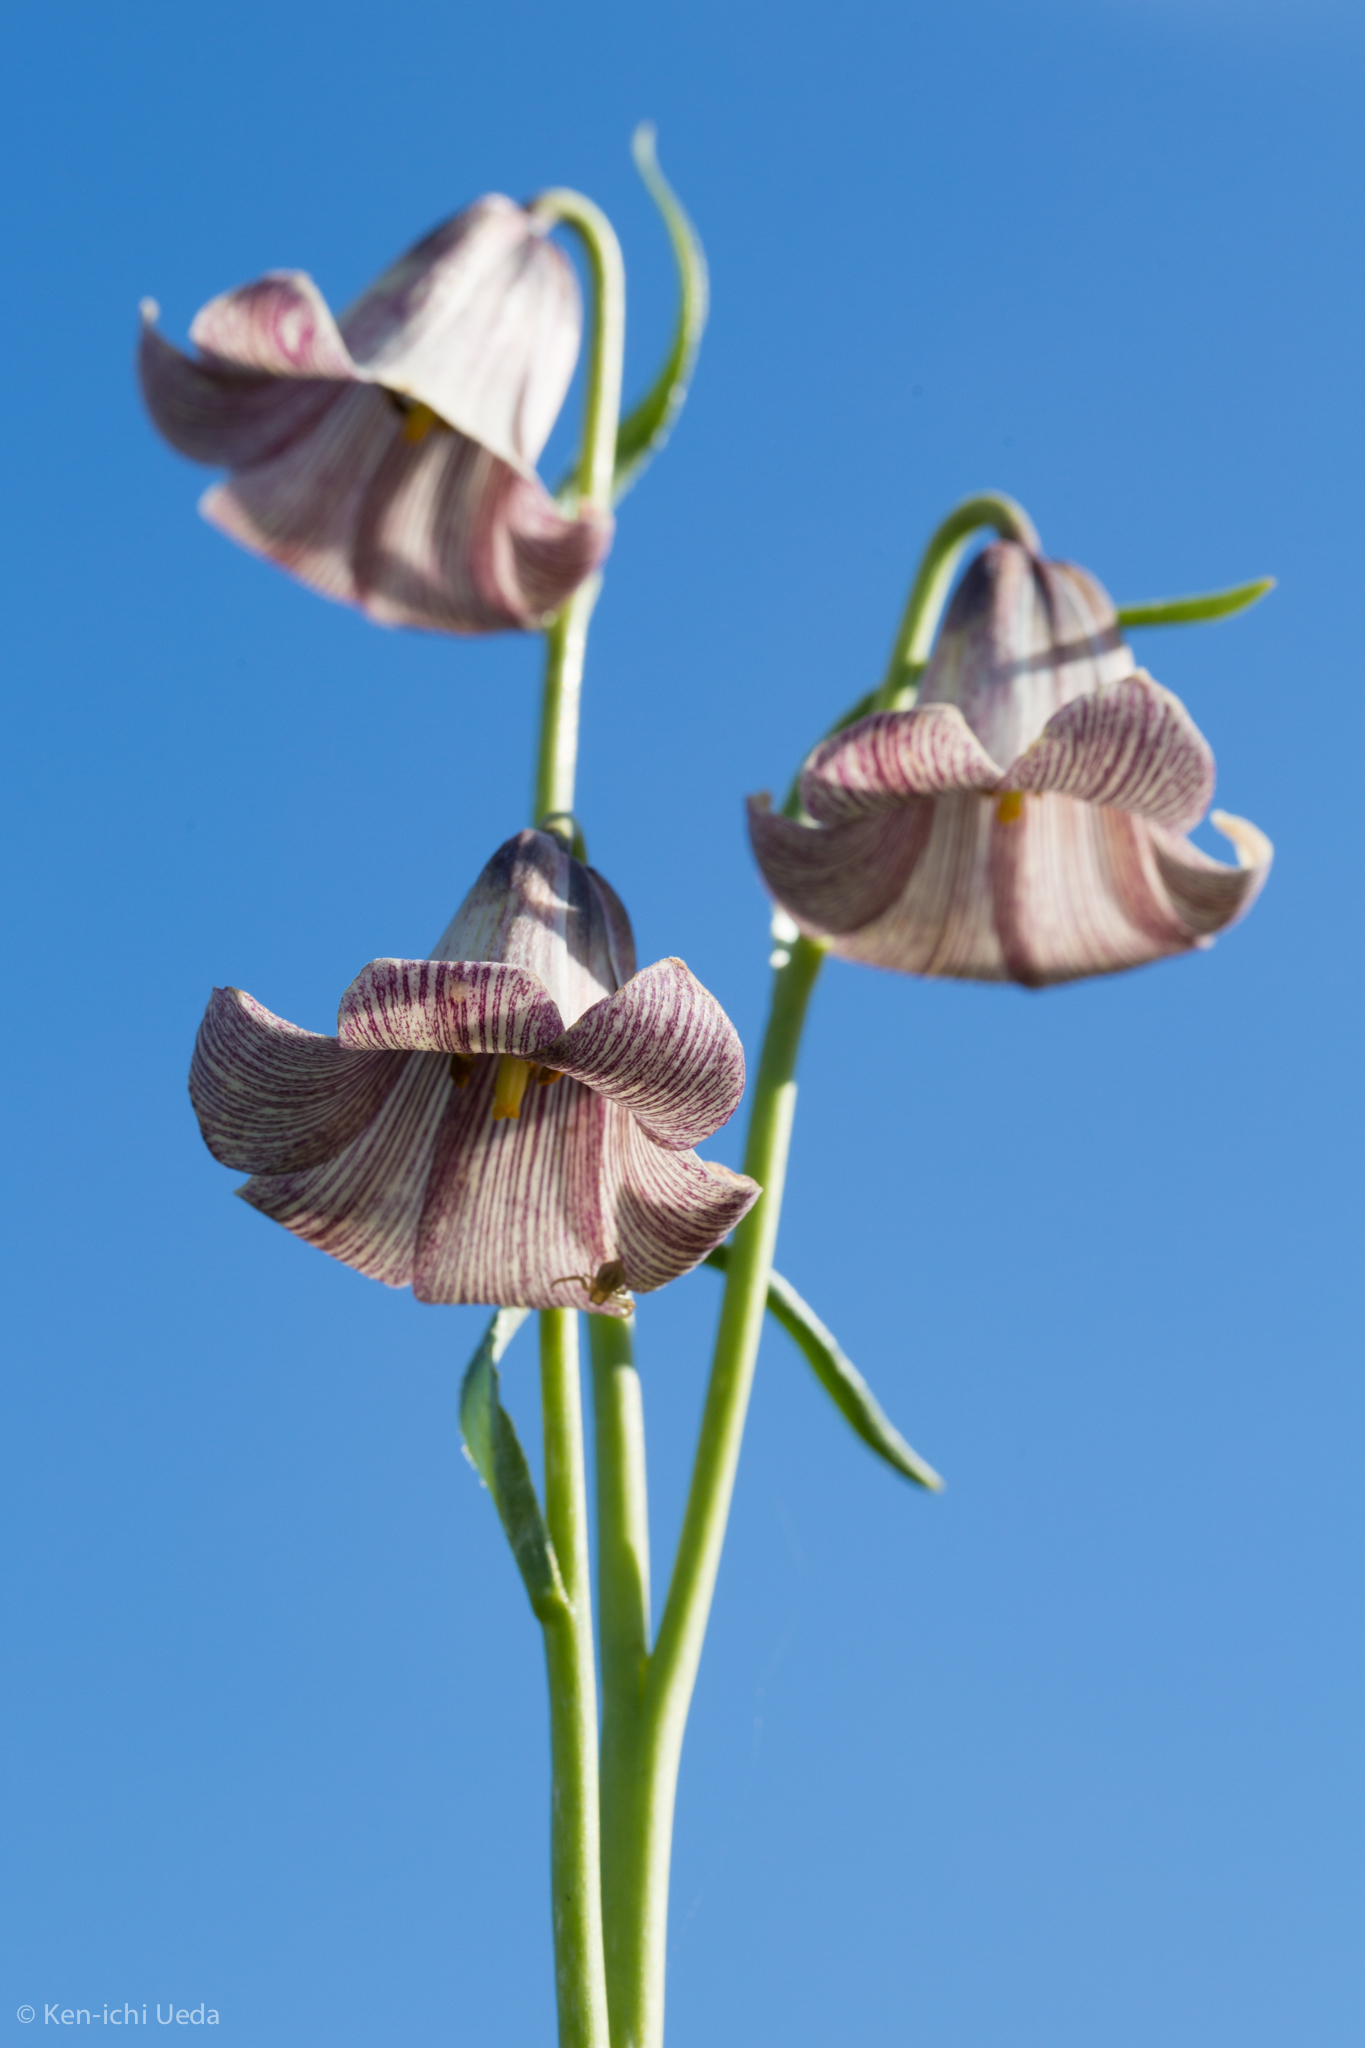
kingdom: Plantae
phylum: Tracheophyta
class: Liliopsida
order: Liliales
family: Liliaceae
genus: Fritillaria
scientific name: Fritillaria striata
